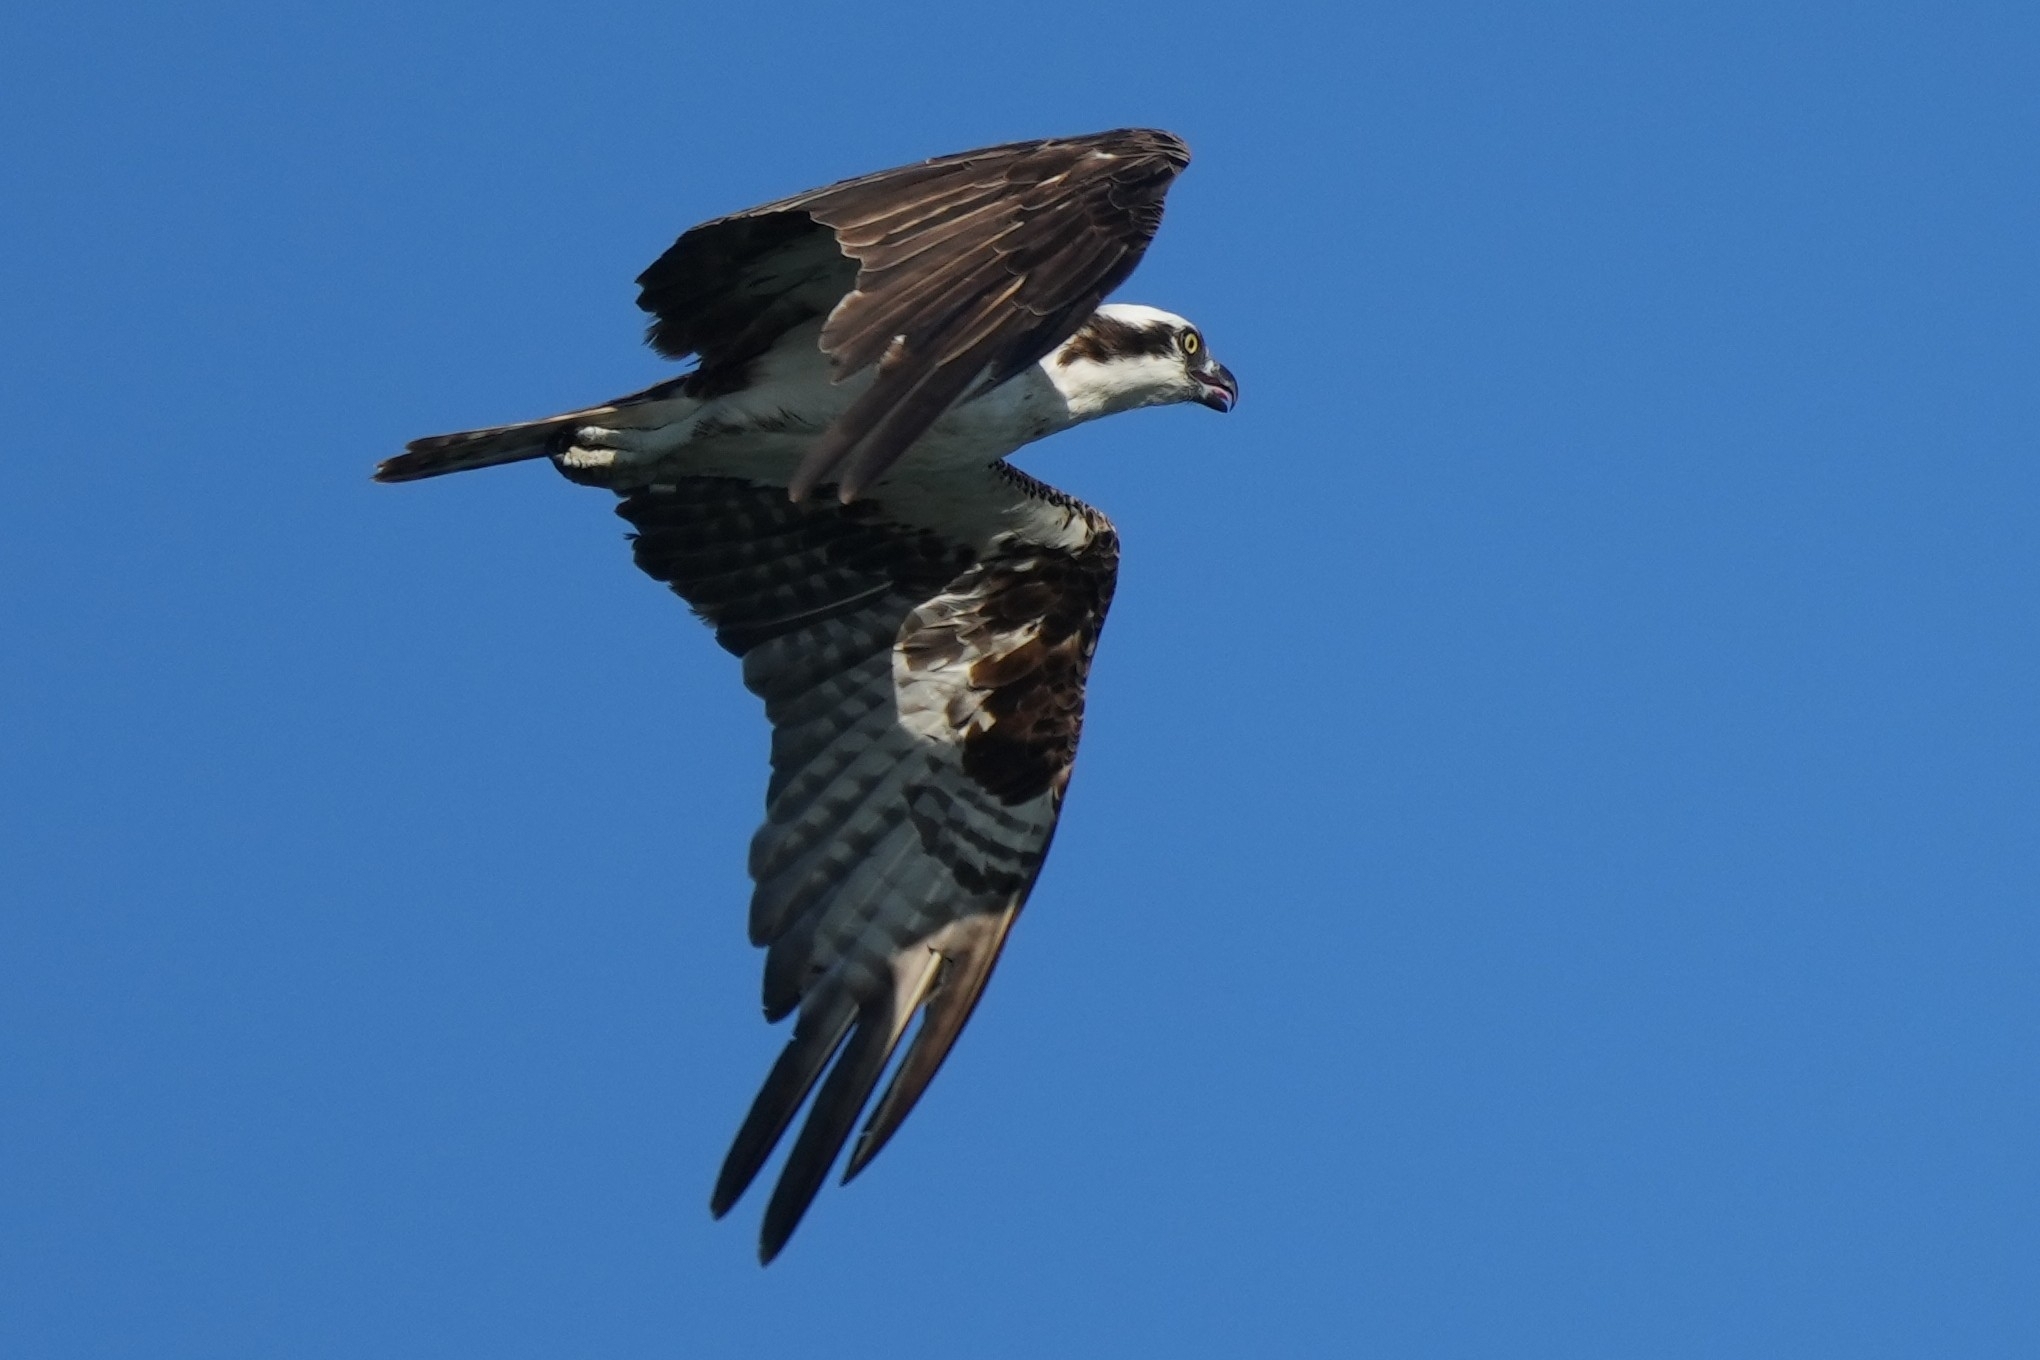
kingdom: Animalia
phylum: Chordata
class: Aves
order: Accipitriformes
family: Pandionidae
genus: Pandion
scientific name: Pandion haliaetus
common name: Osprey
